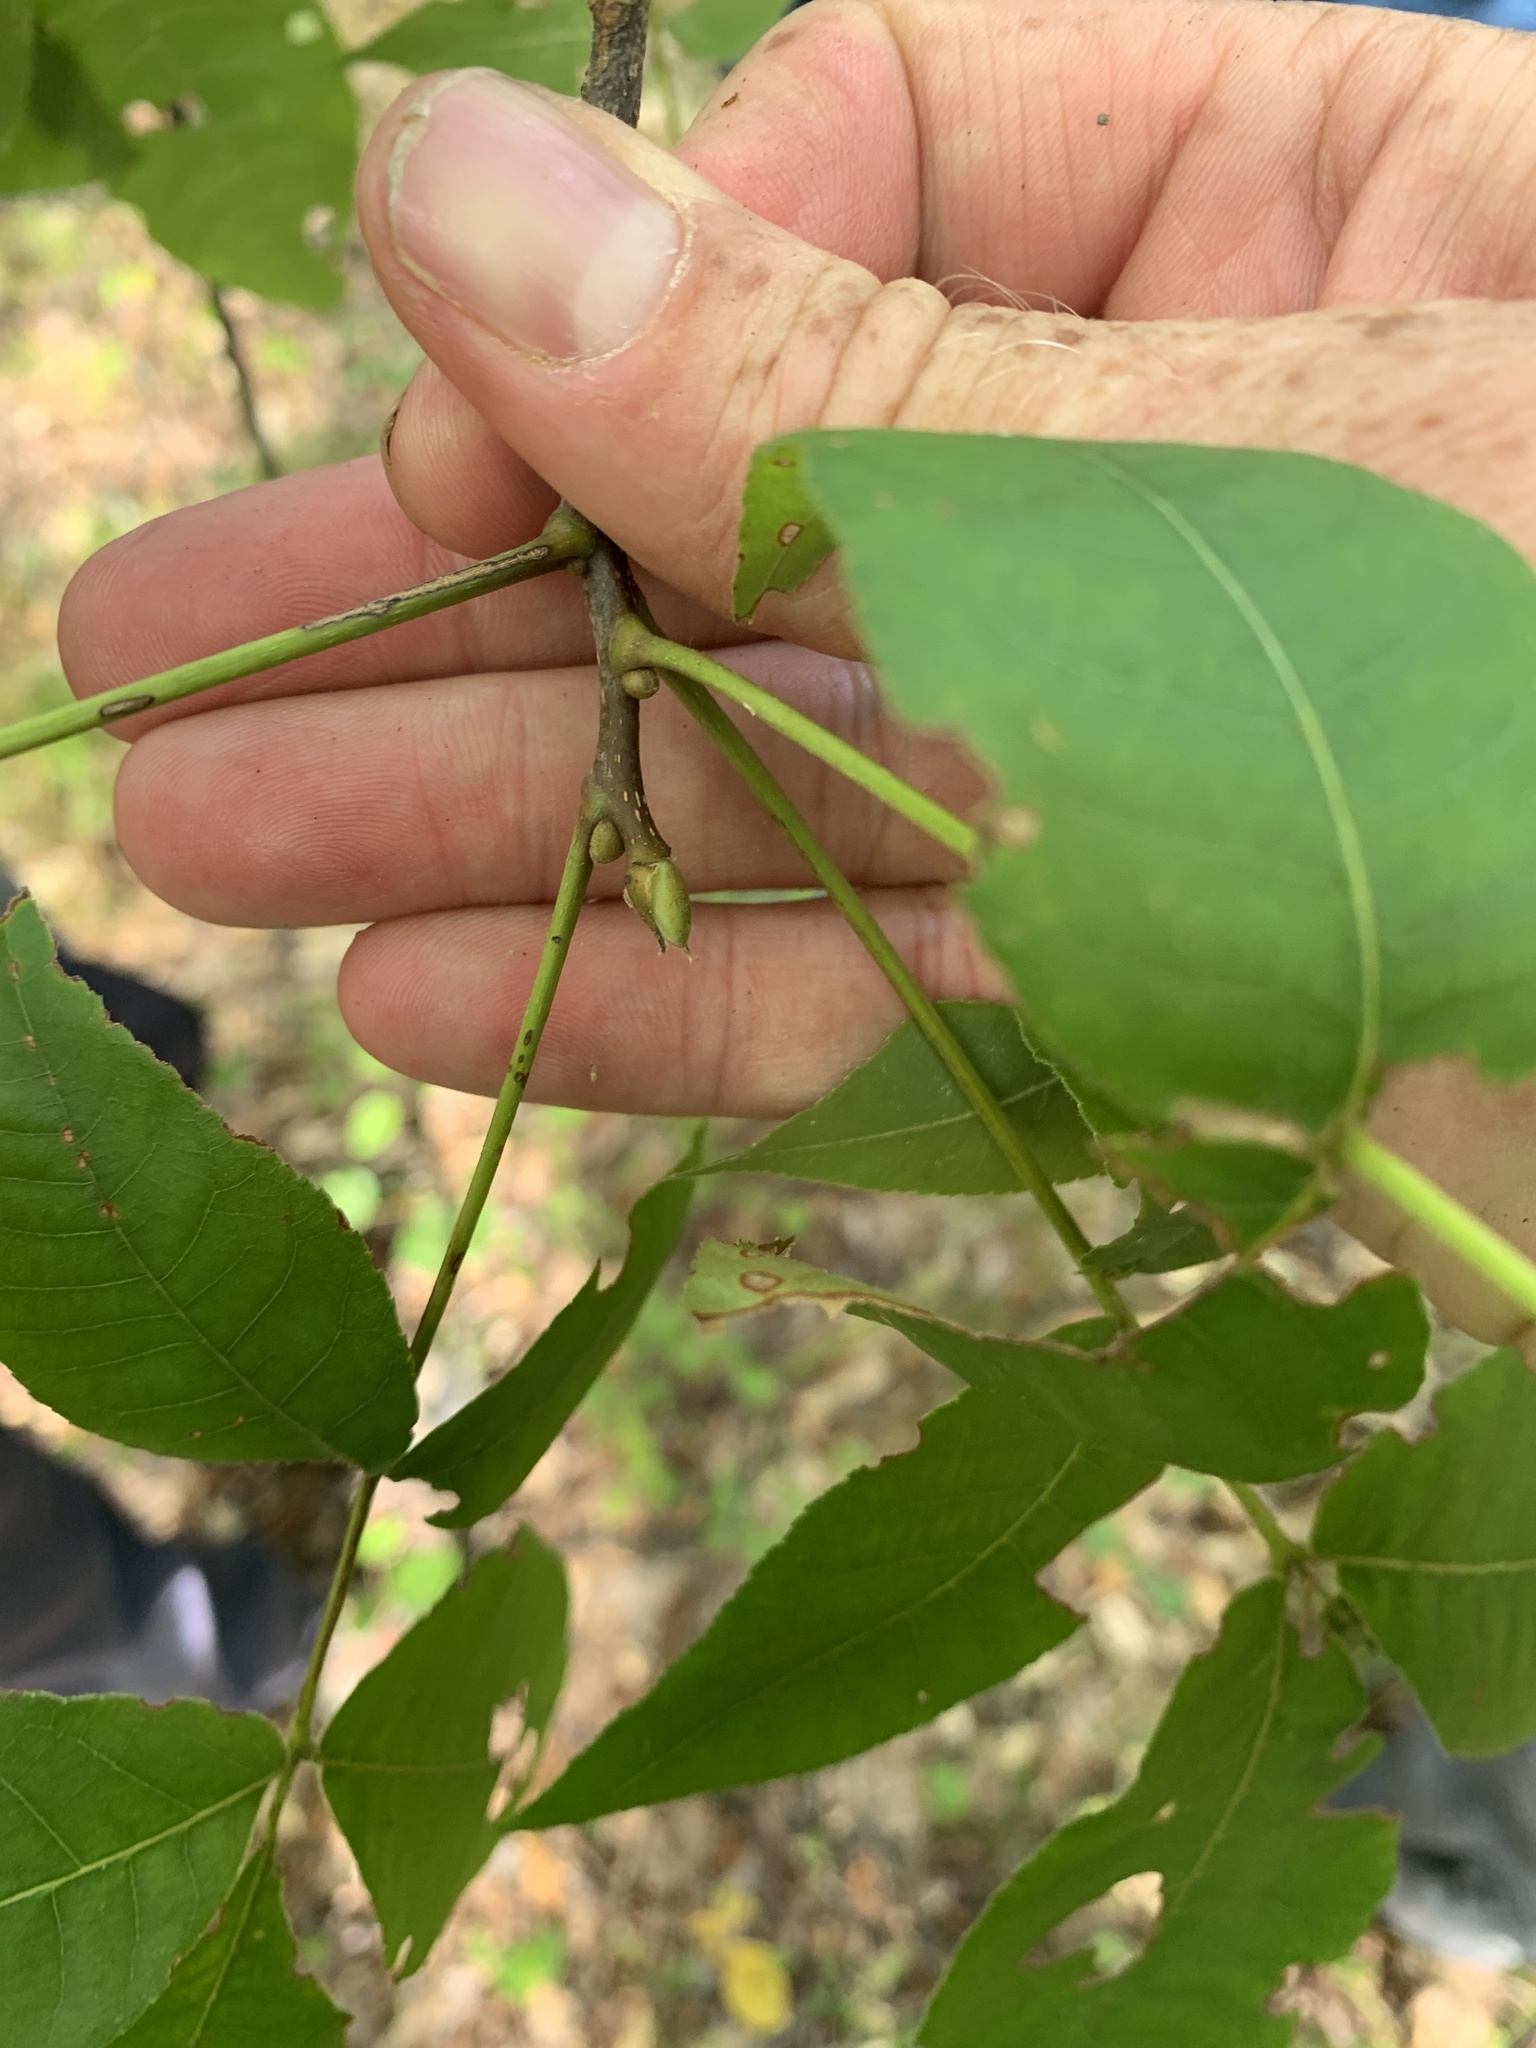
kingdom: Plantae
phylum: Tracheophyta
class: Magnoliopsida
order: Fagales
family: Juglandaceae
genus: Carya
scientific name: Carya glabra
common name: Pignut hickory
